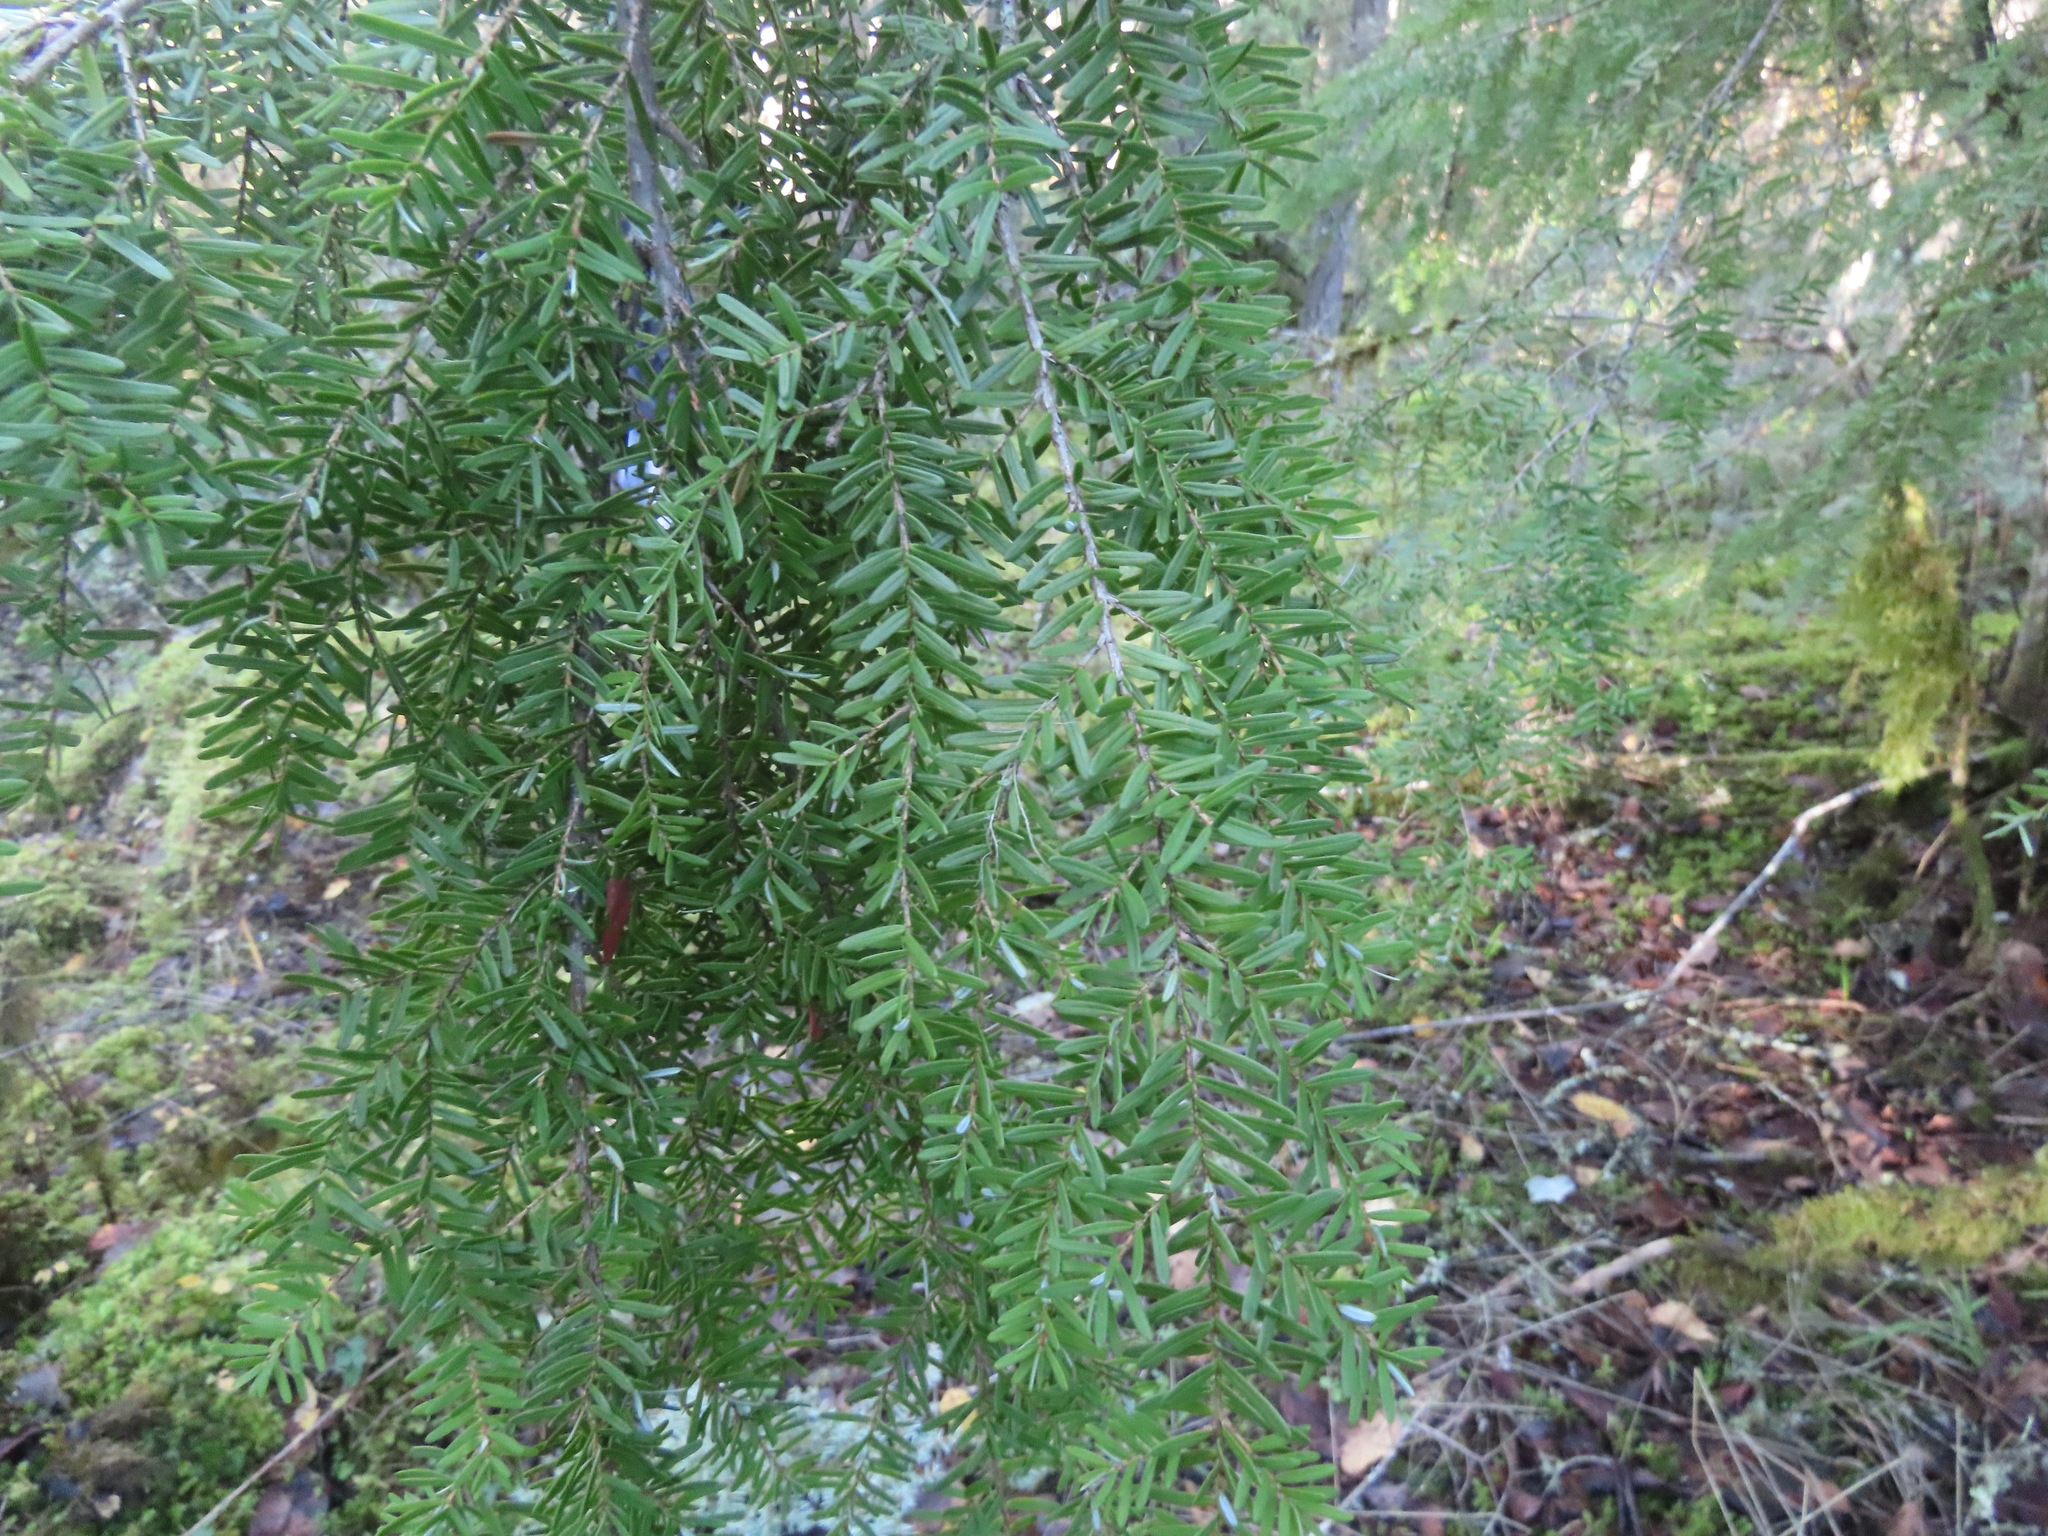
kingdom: Plantae
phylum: Tracheophyta
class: Pinopsida
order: Pinales
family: Pinaceae
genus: Tsuga
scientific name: Tsuga heterophylla
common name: Western hemlock
